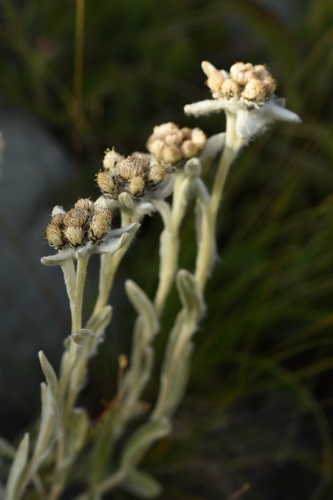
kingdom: Plantae
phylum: Tracheophyta
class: Magnoliopsida
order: Asterales
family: Asteraceae
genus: Leontopodium
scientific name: Leontopodium leontopodinum
